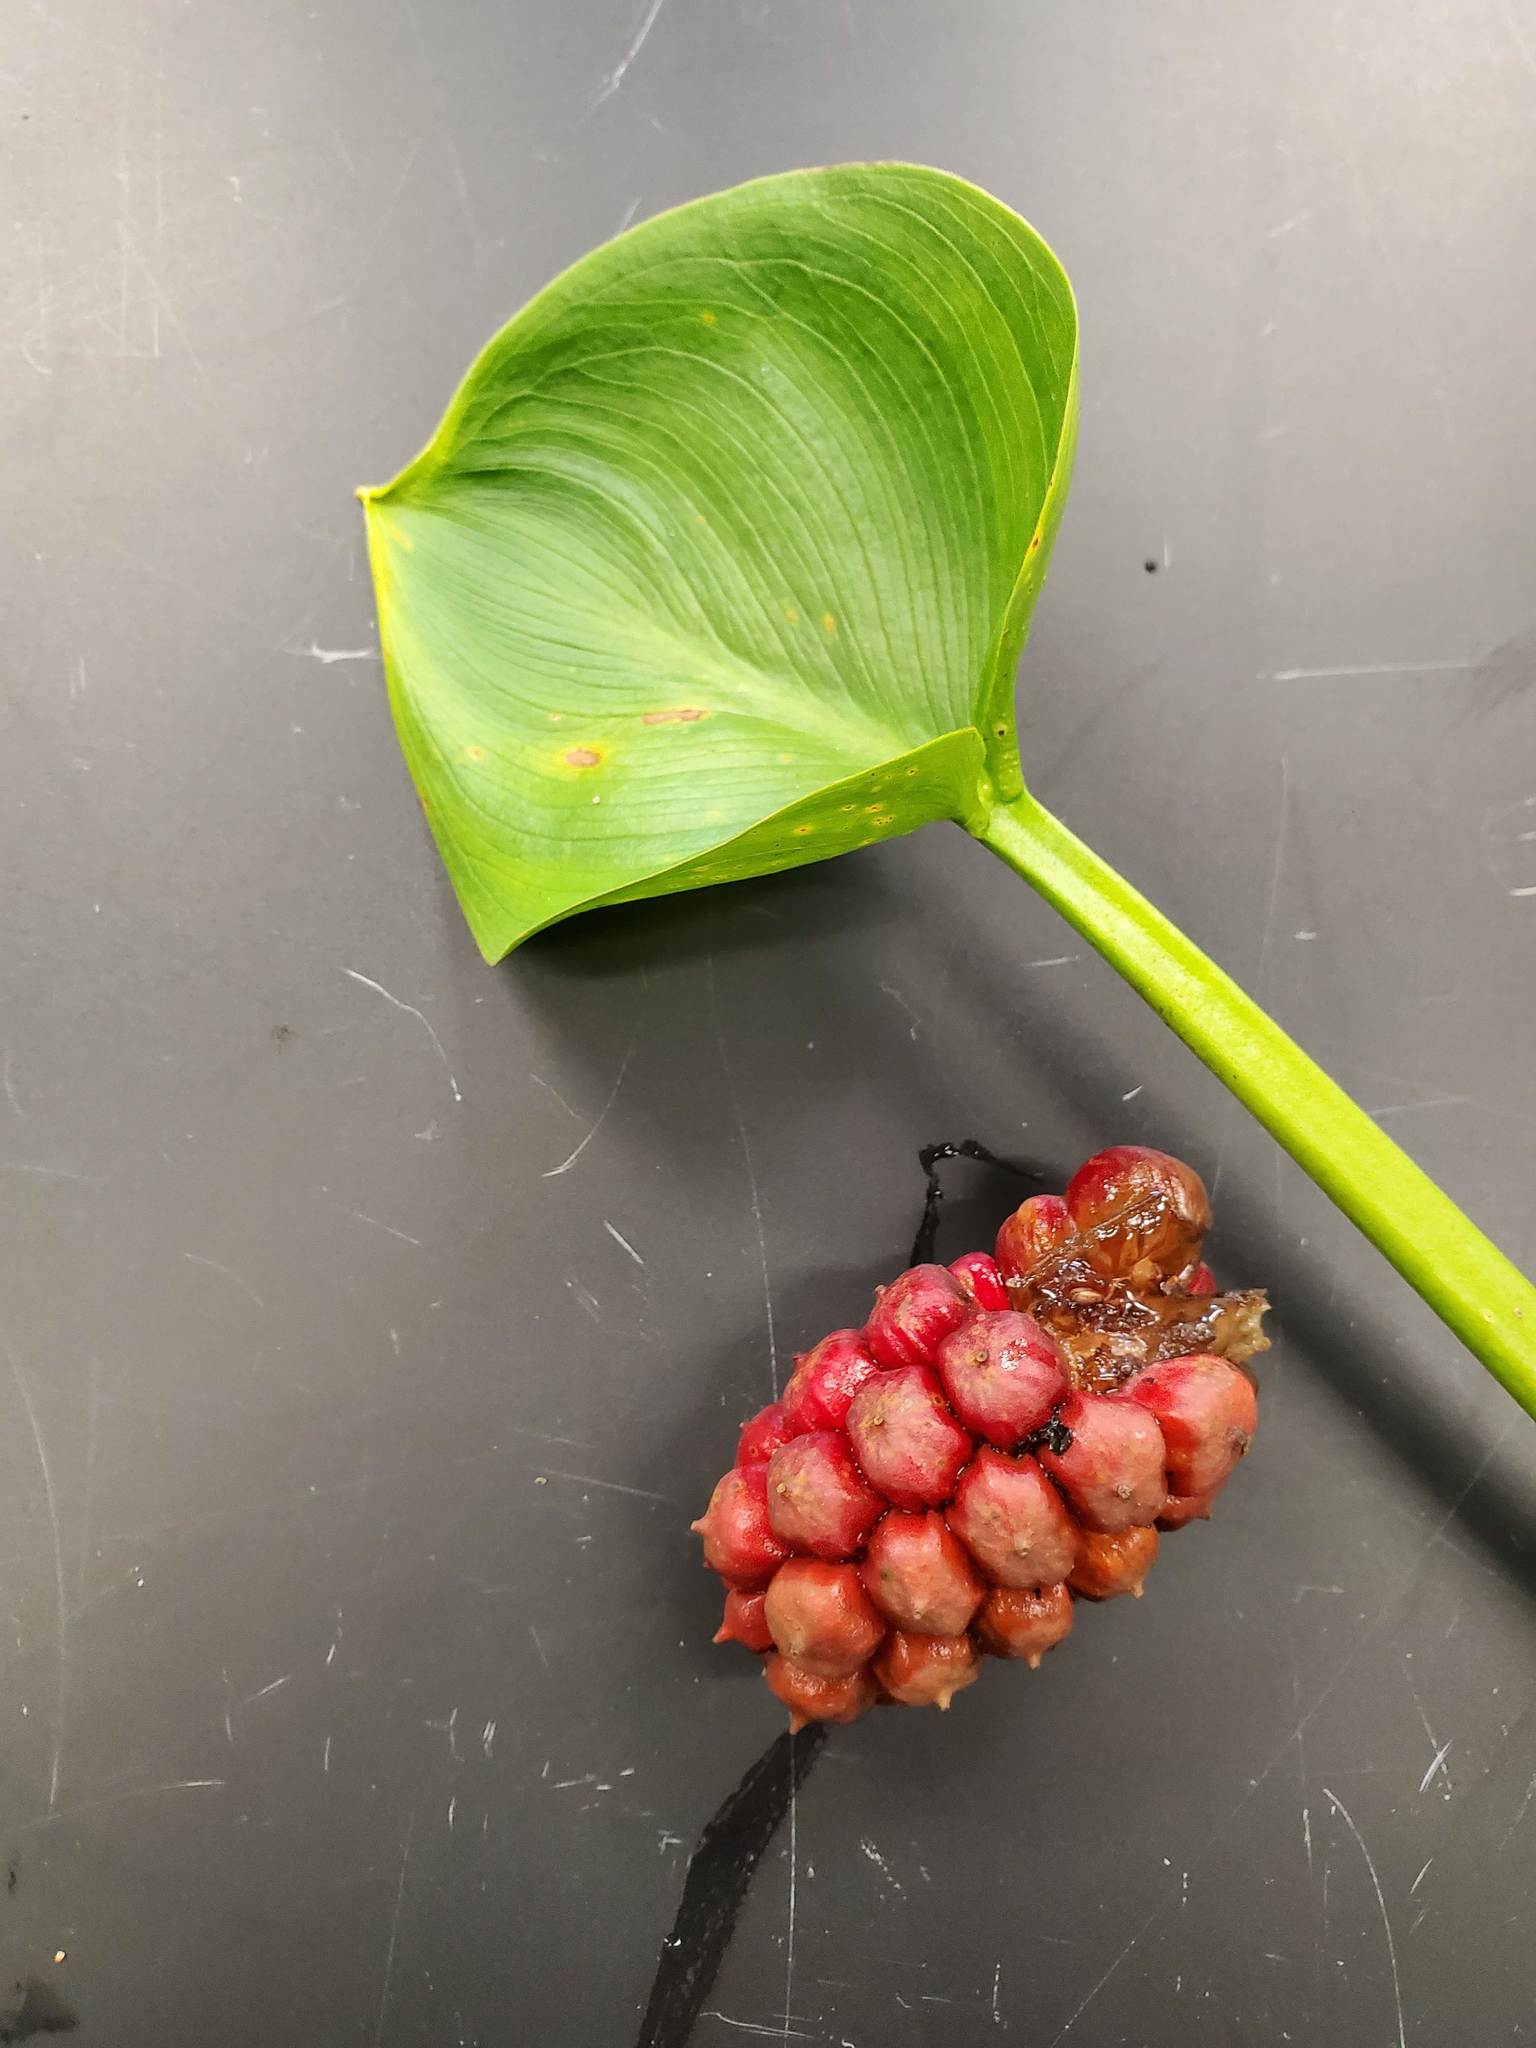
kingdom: Plantae
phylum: Tracheophyta
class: Liliopsida
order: Alismatales
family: Araceae
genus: Calla
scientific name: Calla palustris
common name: Bog arum
